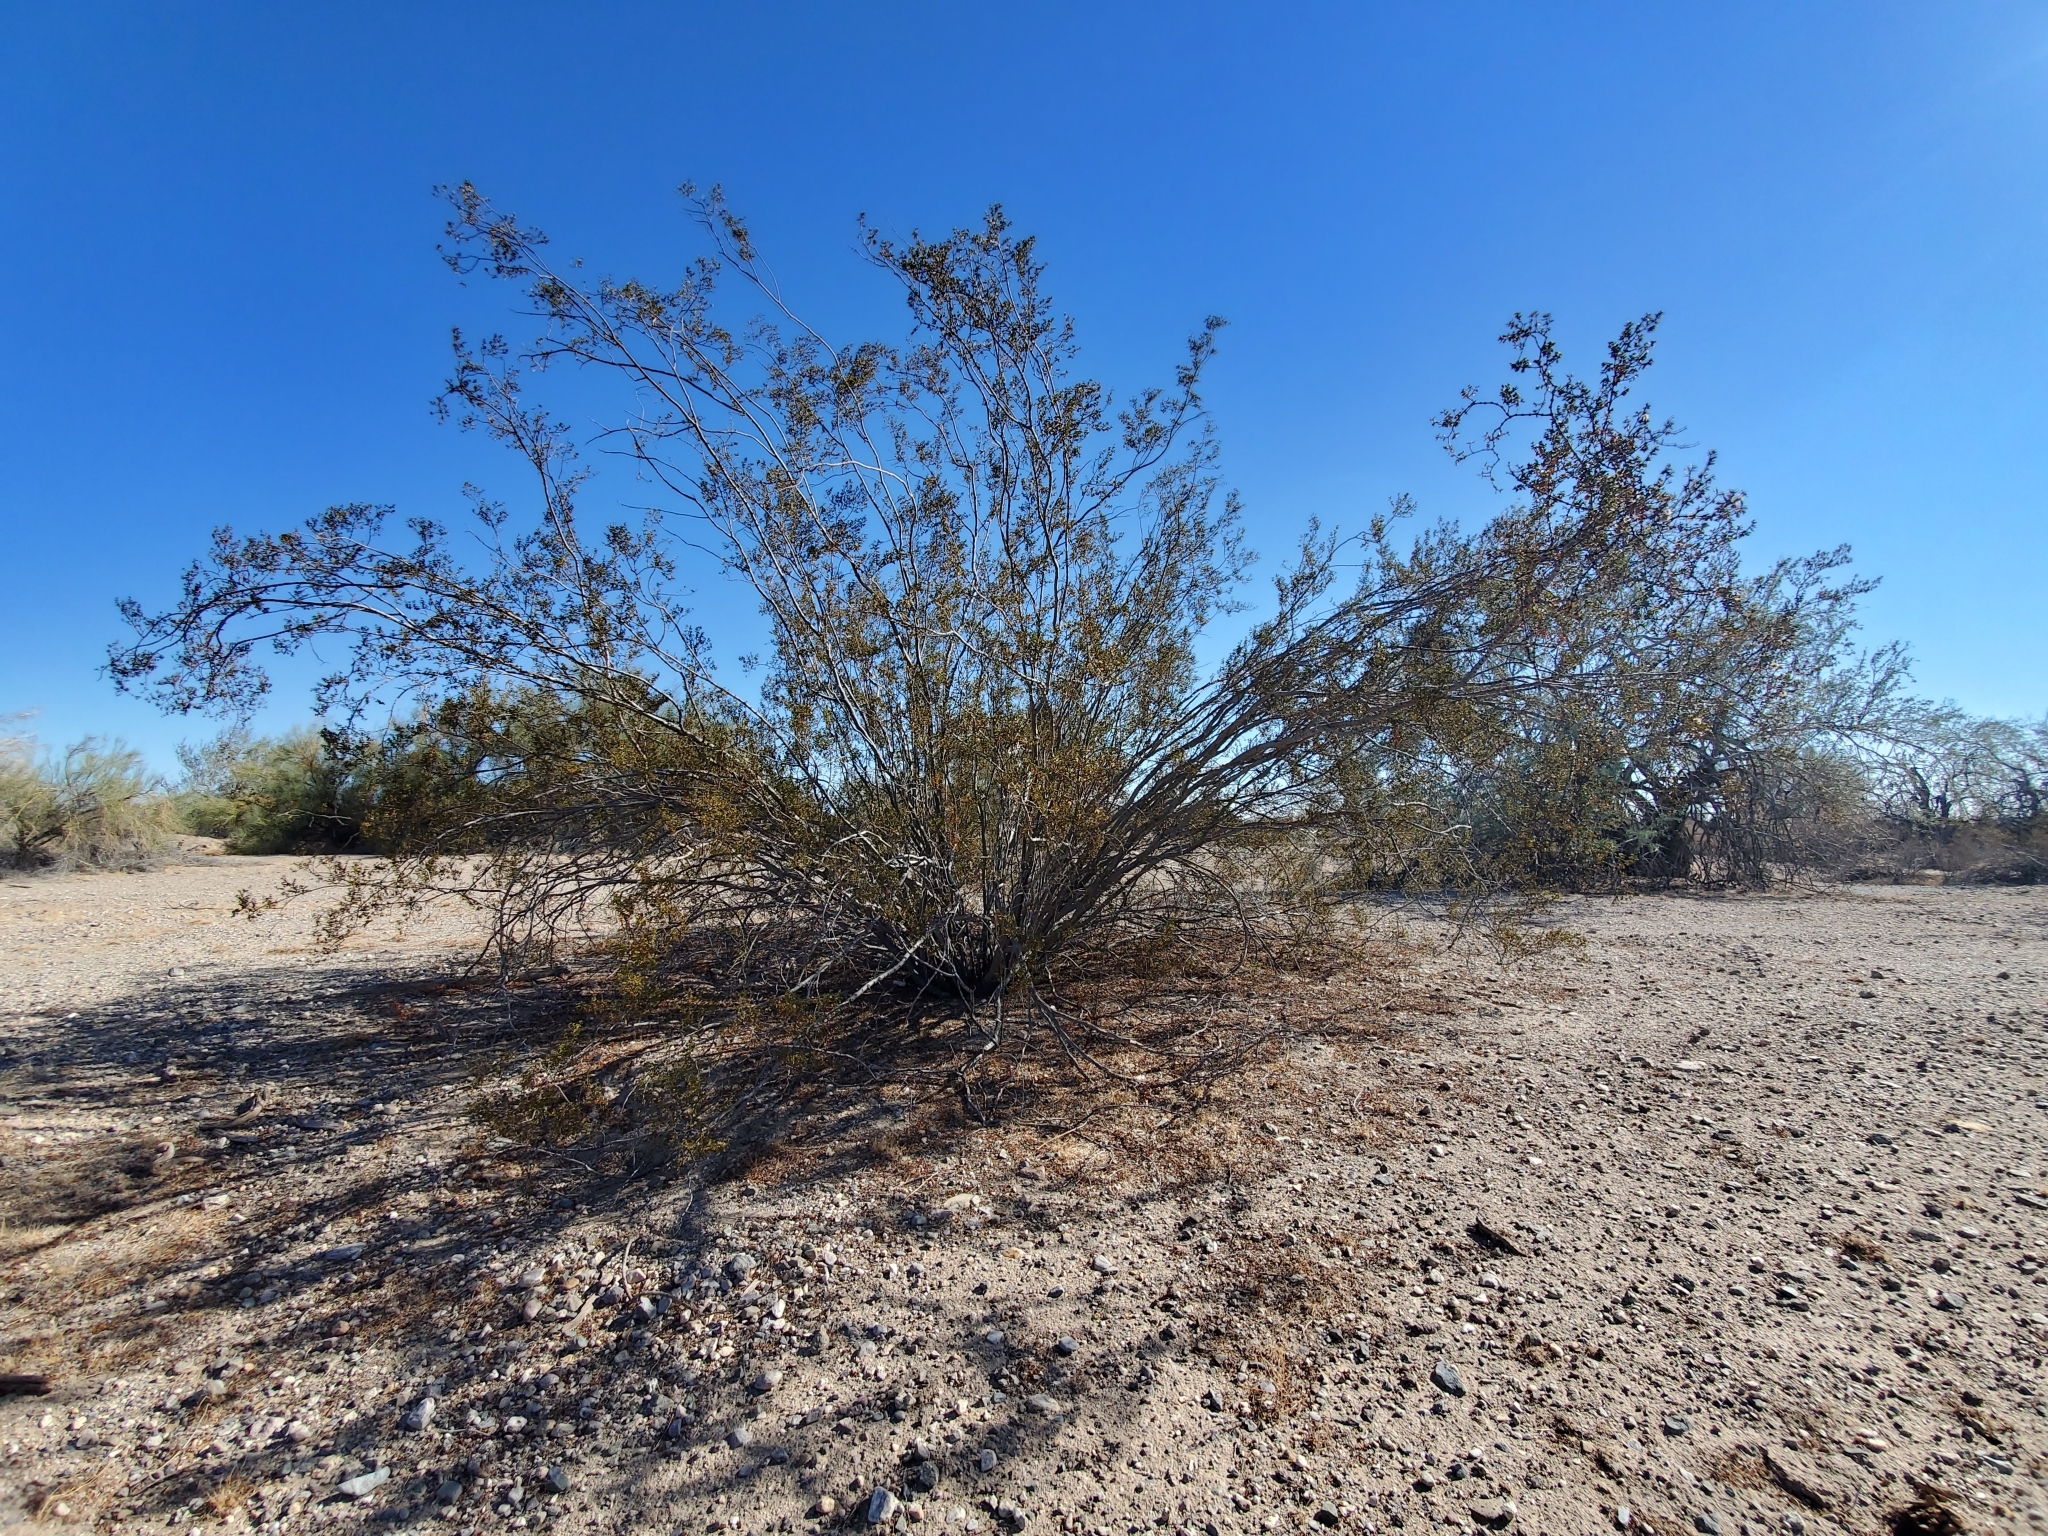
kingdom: Plantae
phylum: Tracheophyta
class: Magnoliopsida
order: Zygophyllales
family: Zygophyllaceae
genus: Larrea
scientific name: Larrea tridentata
